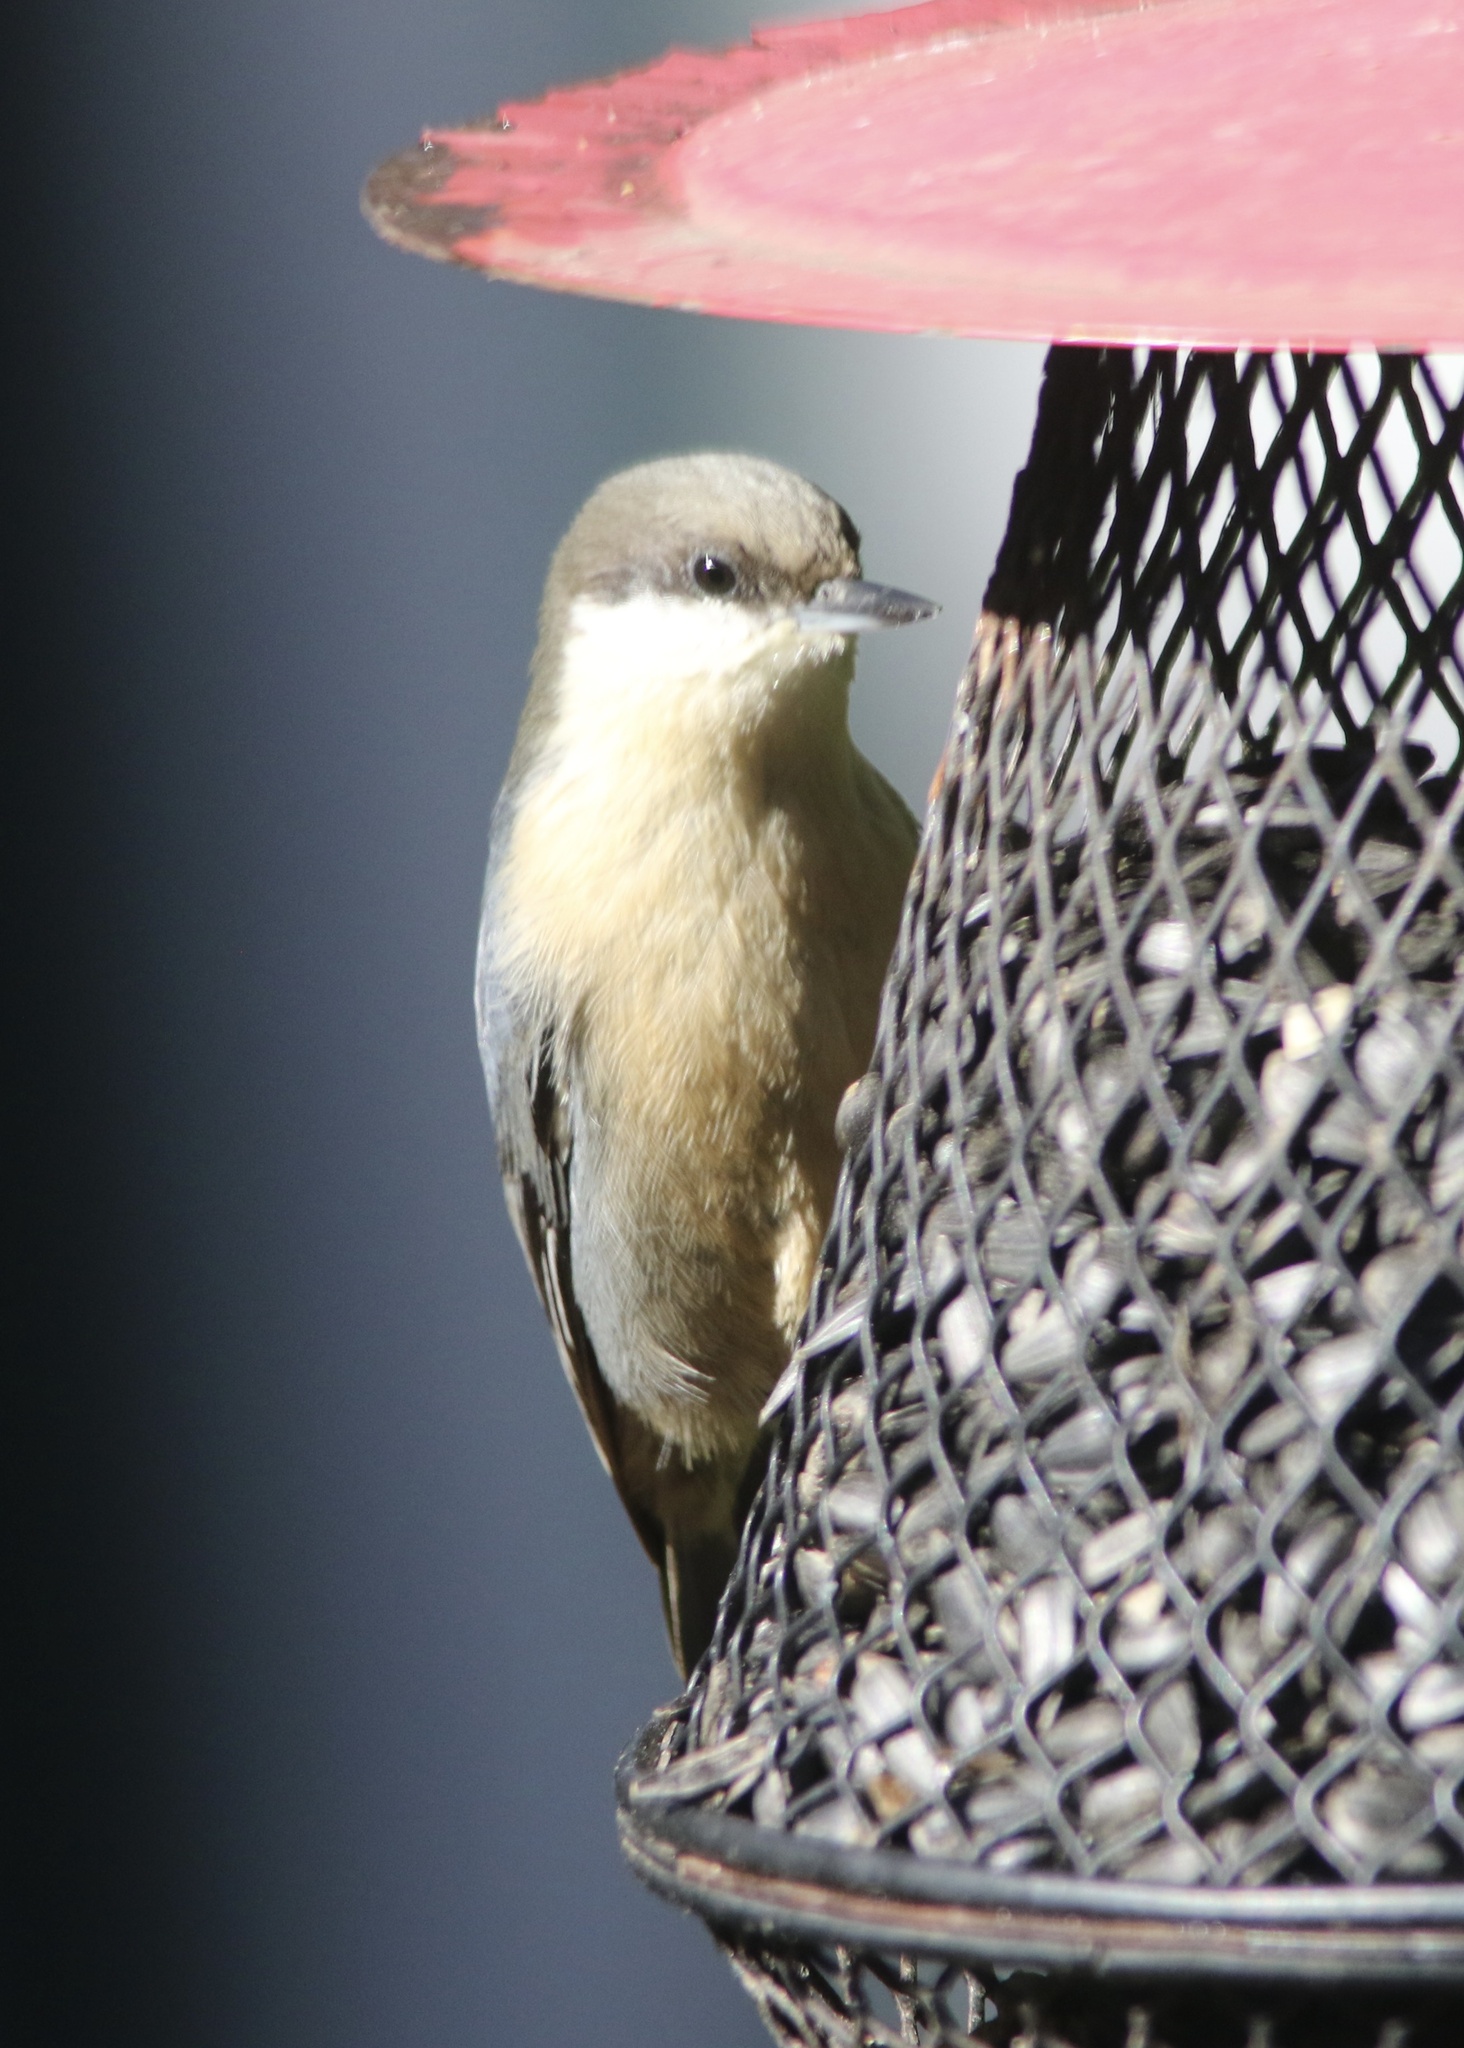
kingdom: Animalia
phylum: Chordata
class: Aves
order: Passeriformes
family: Sittidae
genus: Sitta
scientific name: Sitta pygmaea
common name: Pygmy nuthatch
